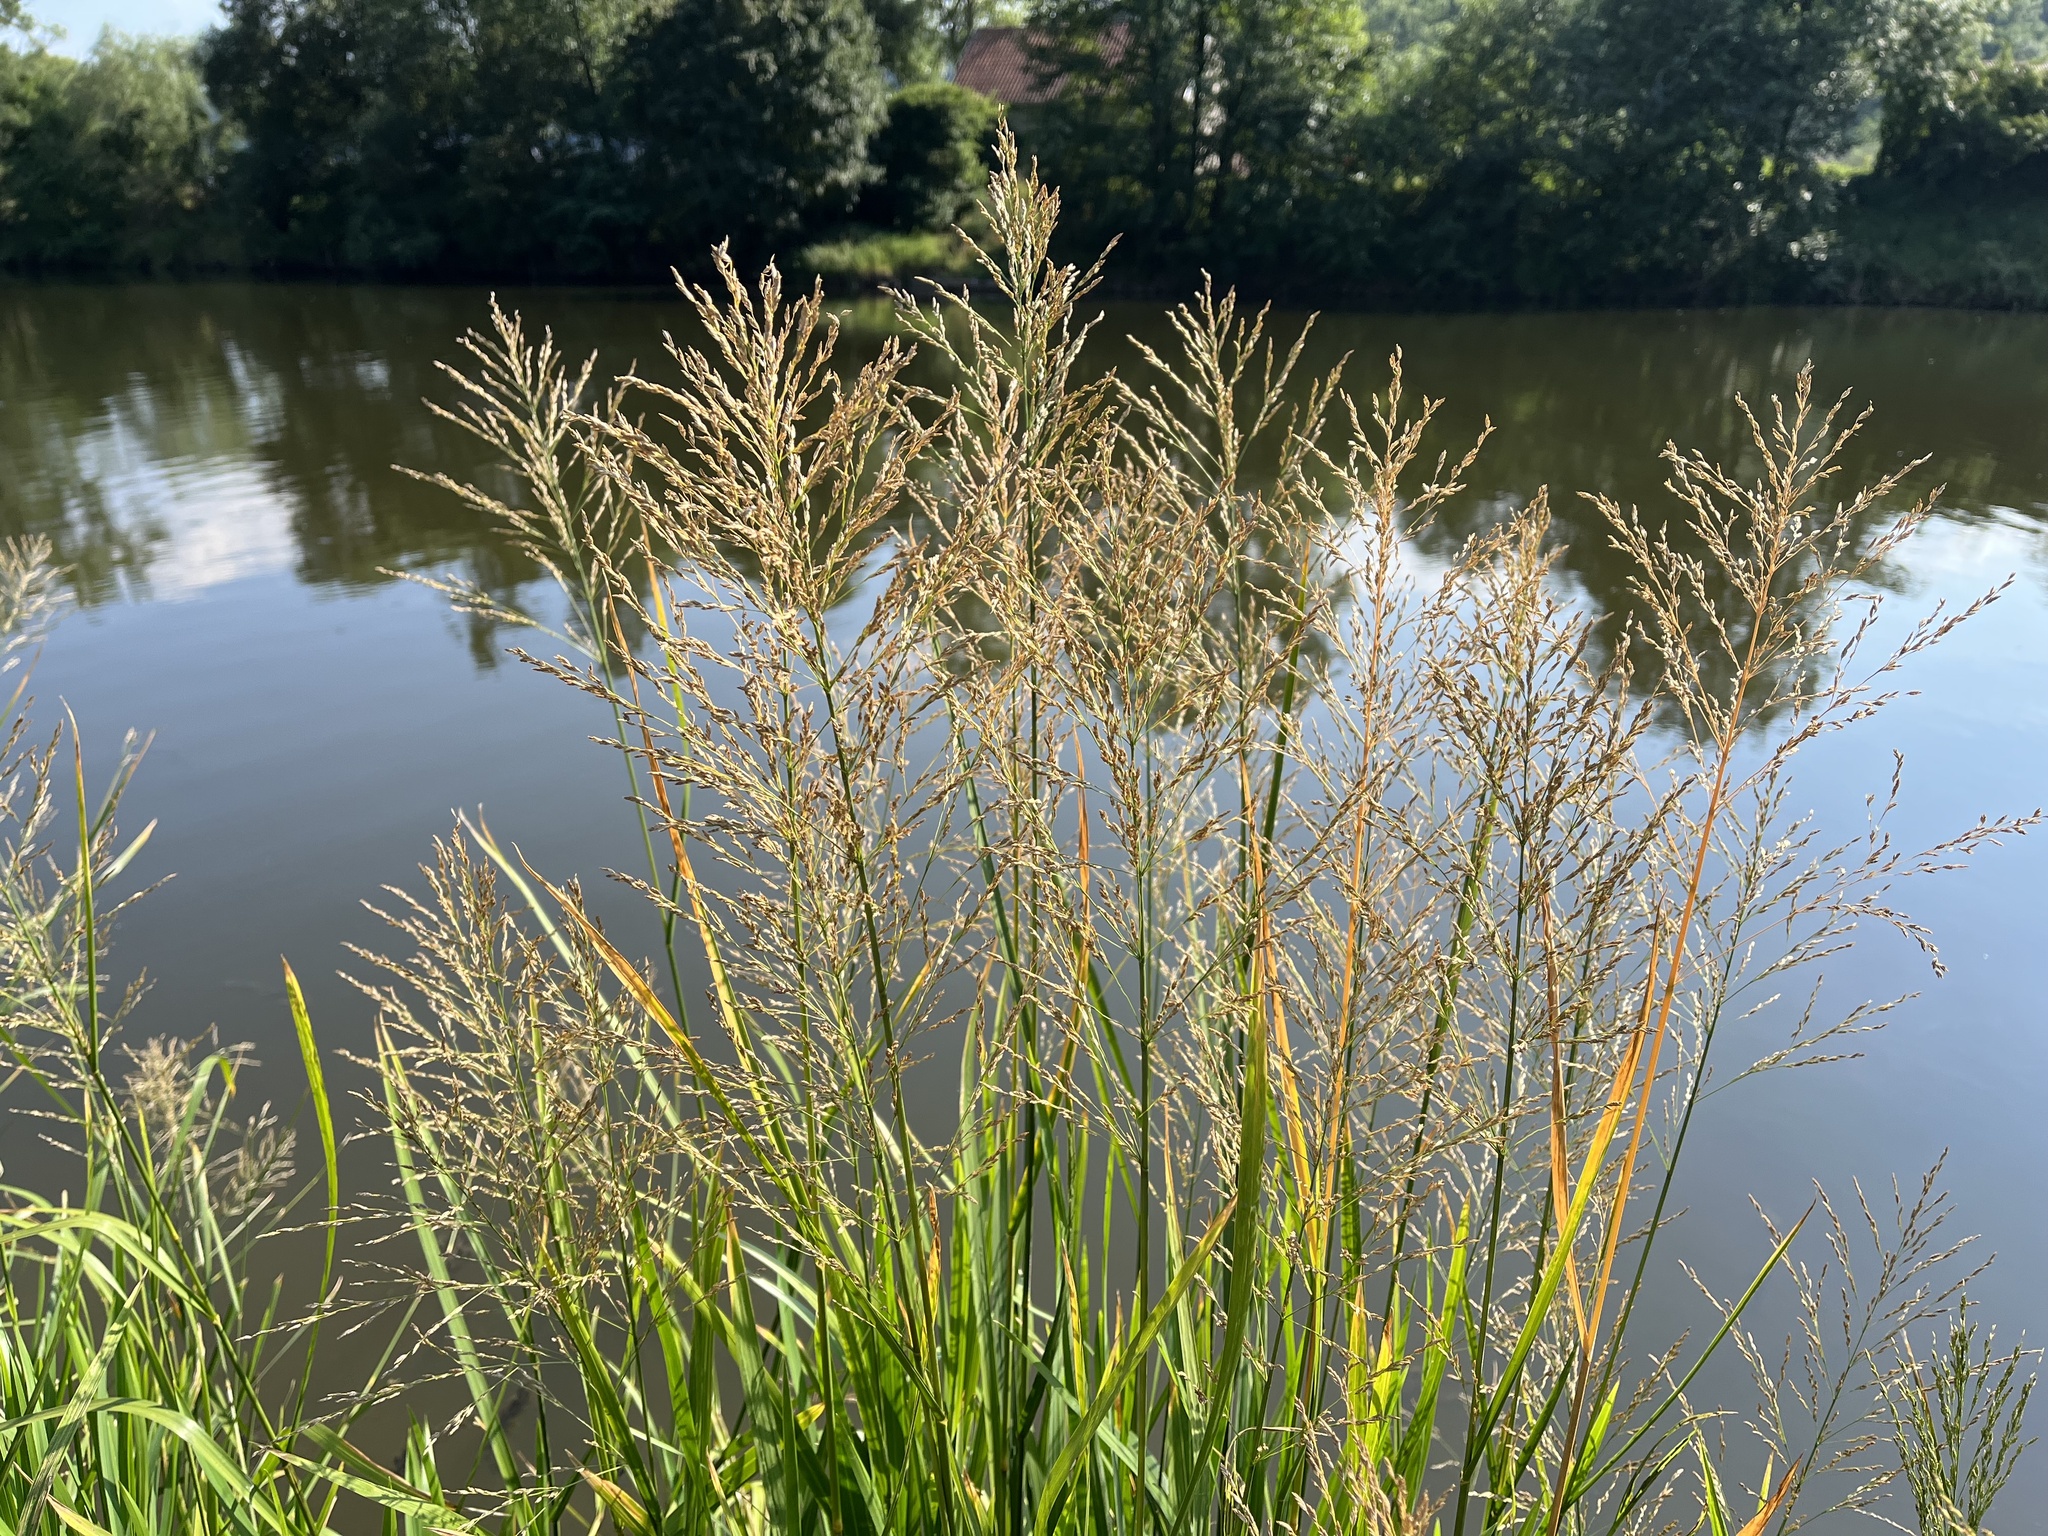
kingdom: Plantae
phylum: Tracheophyta
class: Liliopsida
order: Poales
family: Poaceae
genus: Glyceria
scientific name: Glyceria maxima
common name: Reed mannagrass
